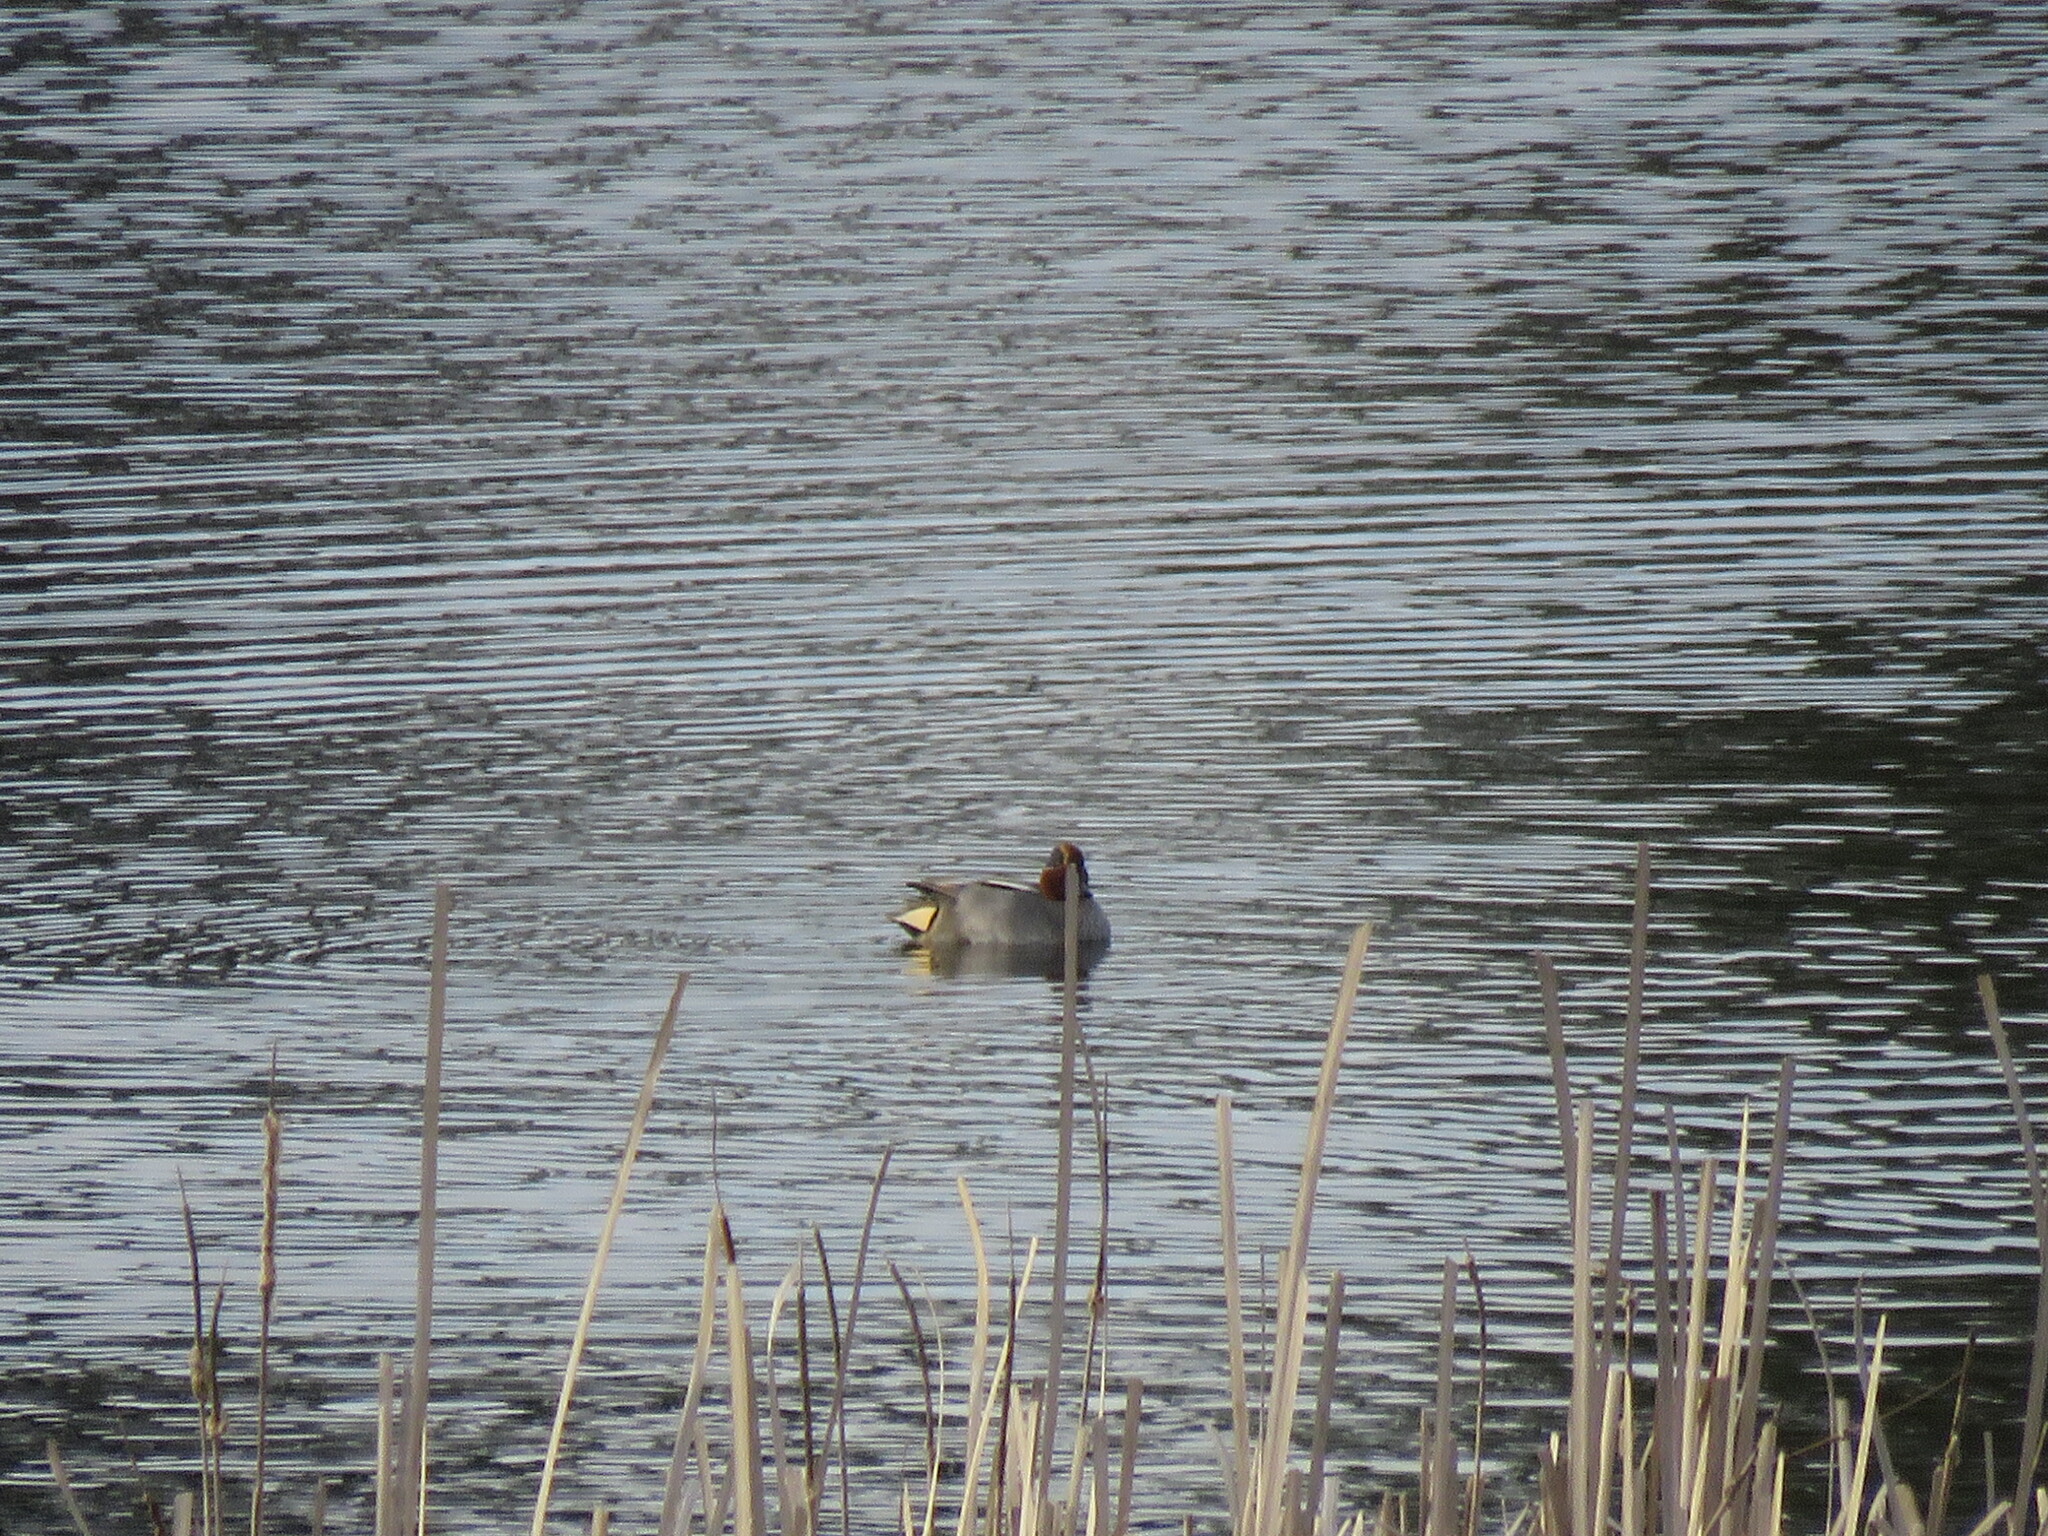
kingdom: Animalia
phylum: Chordata
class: Aves
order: Anseriformes
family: Anatidae
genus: Anas
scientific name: Anas crecca
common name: Eurasian teal
